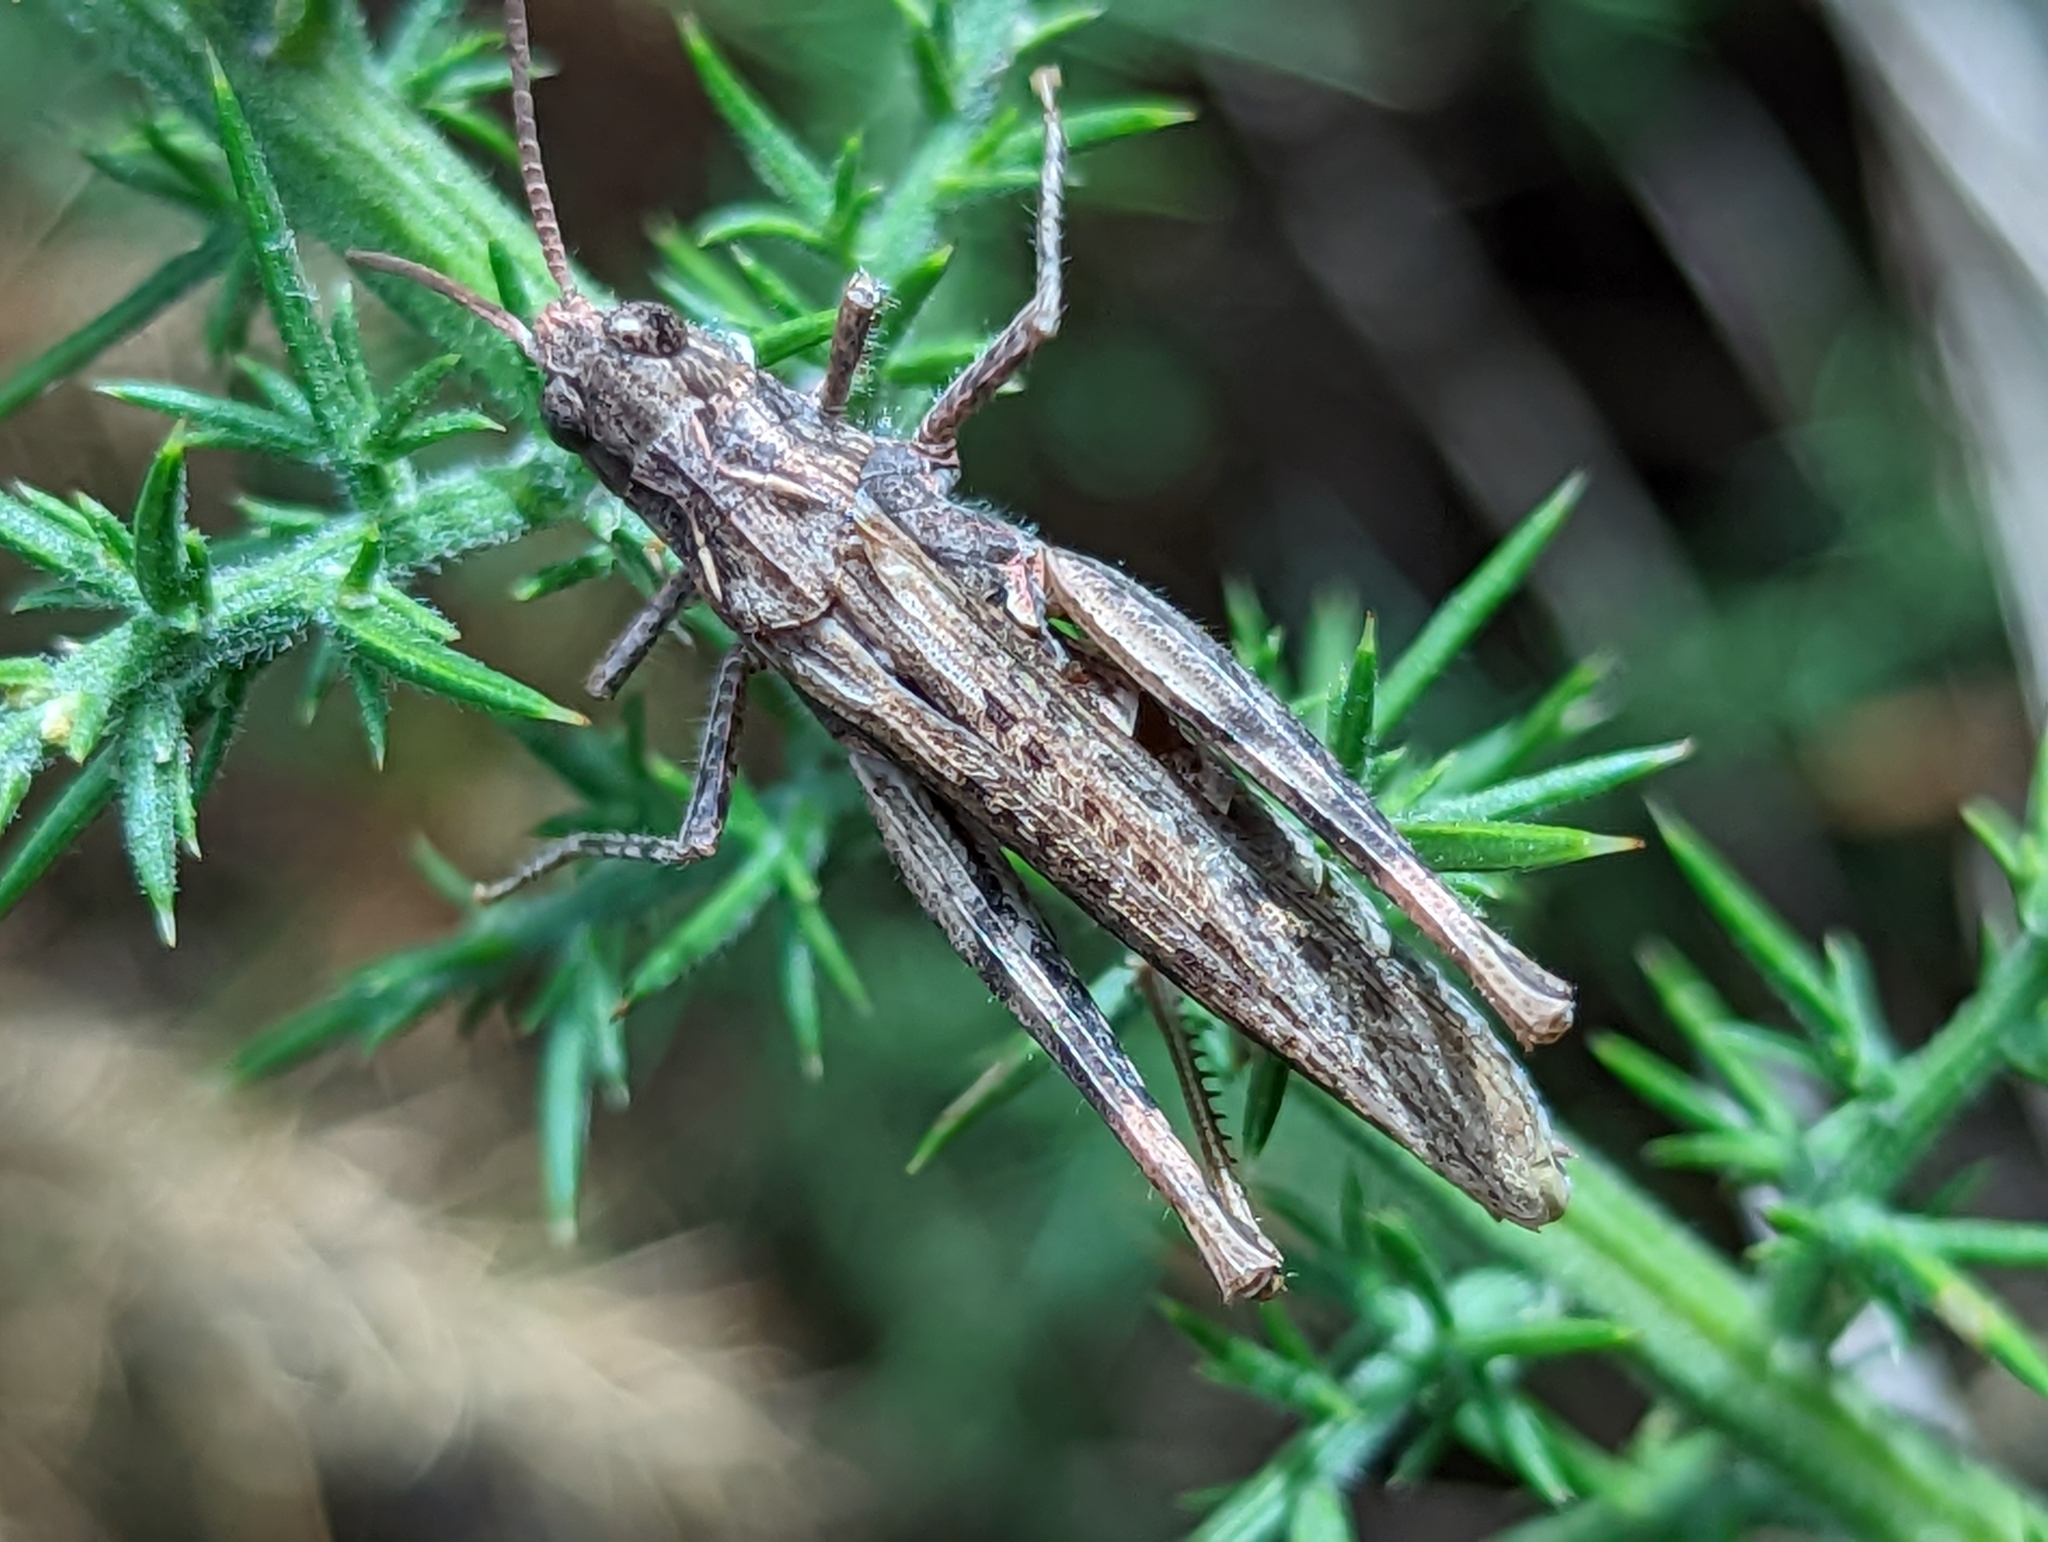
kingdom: Animalia
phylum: Arthropoda
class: Insecta
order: Orthoptera
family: Acrididae
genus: Chorthippus
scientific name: Chorthippus brunneus
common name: Field grasshopper
